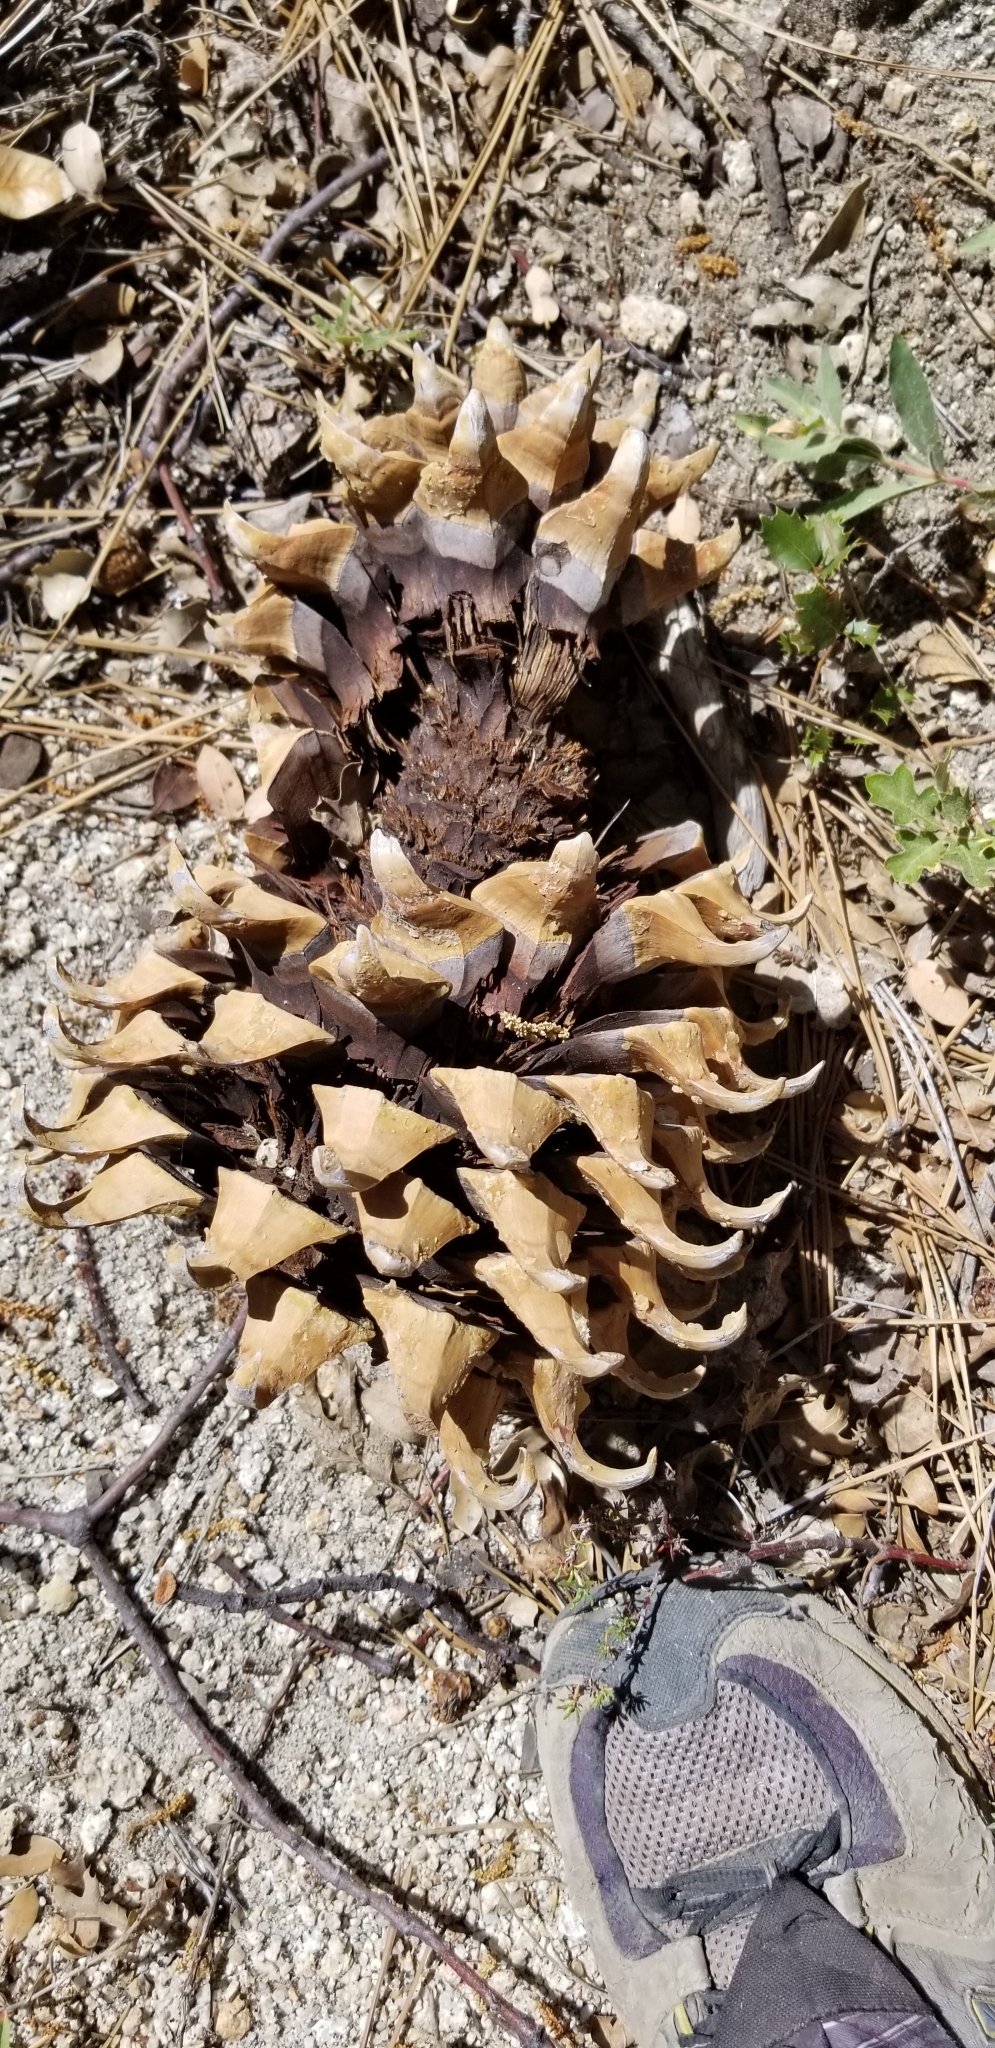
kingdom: Plantae
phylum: Tracheophyta
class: Pinopsida
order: Pinales
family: Pinaceae
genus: Pinus
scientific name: Pinus coulteri
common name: Coulter pine
